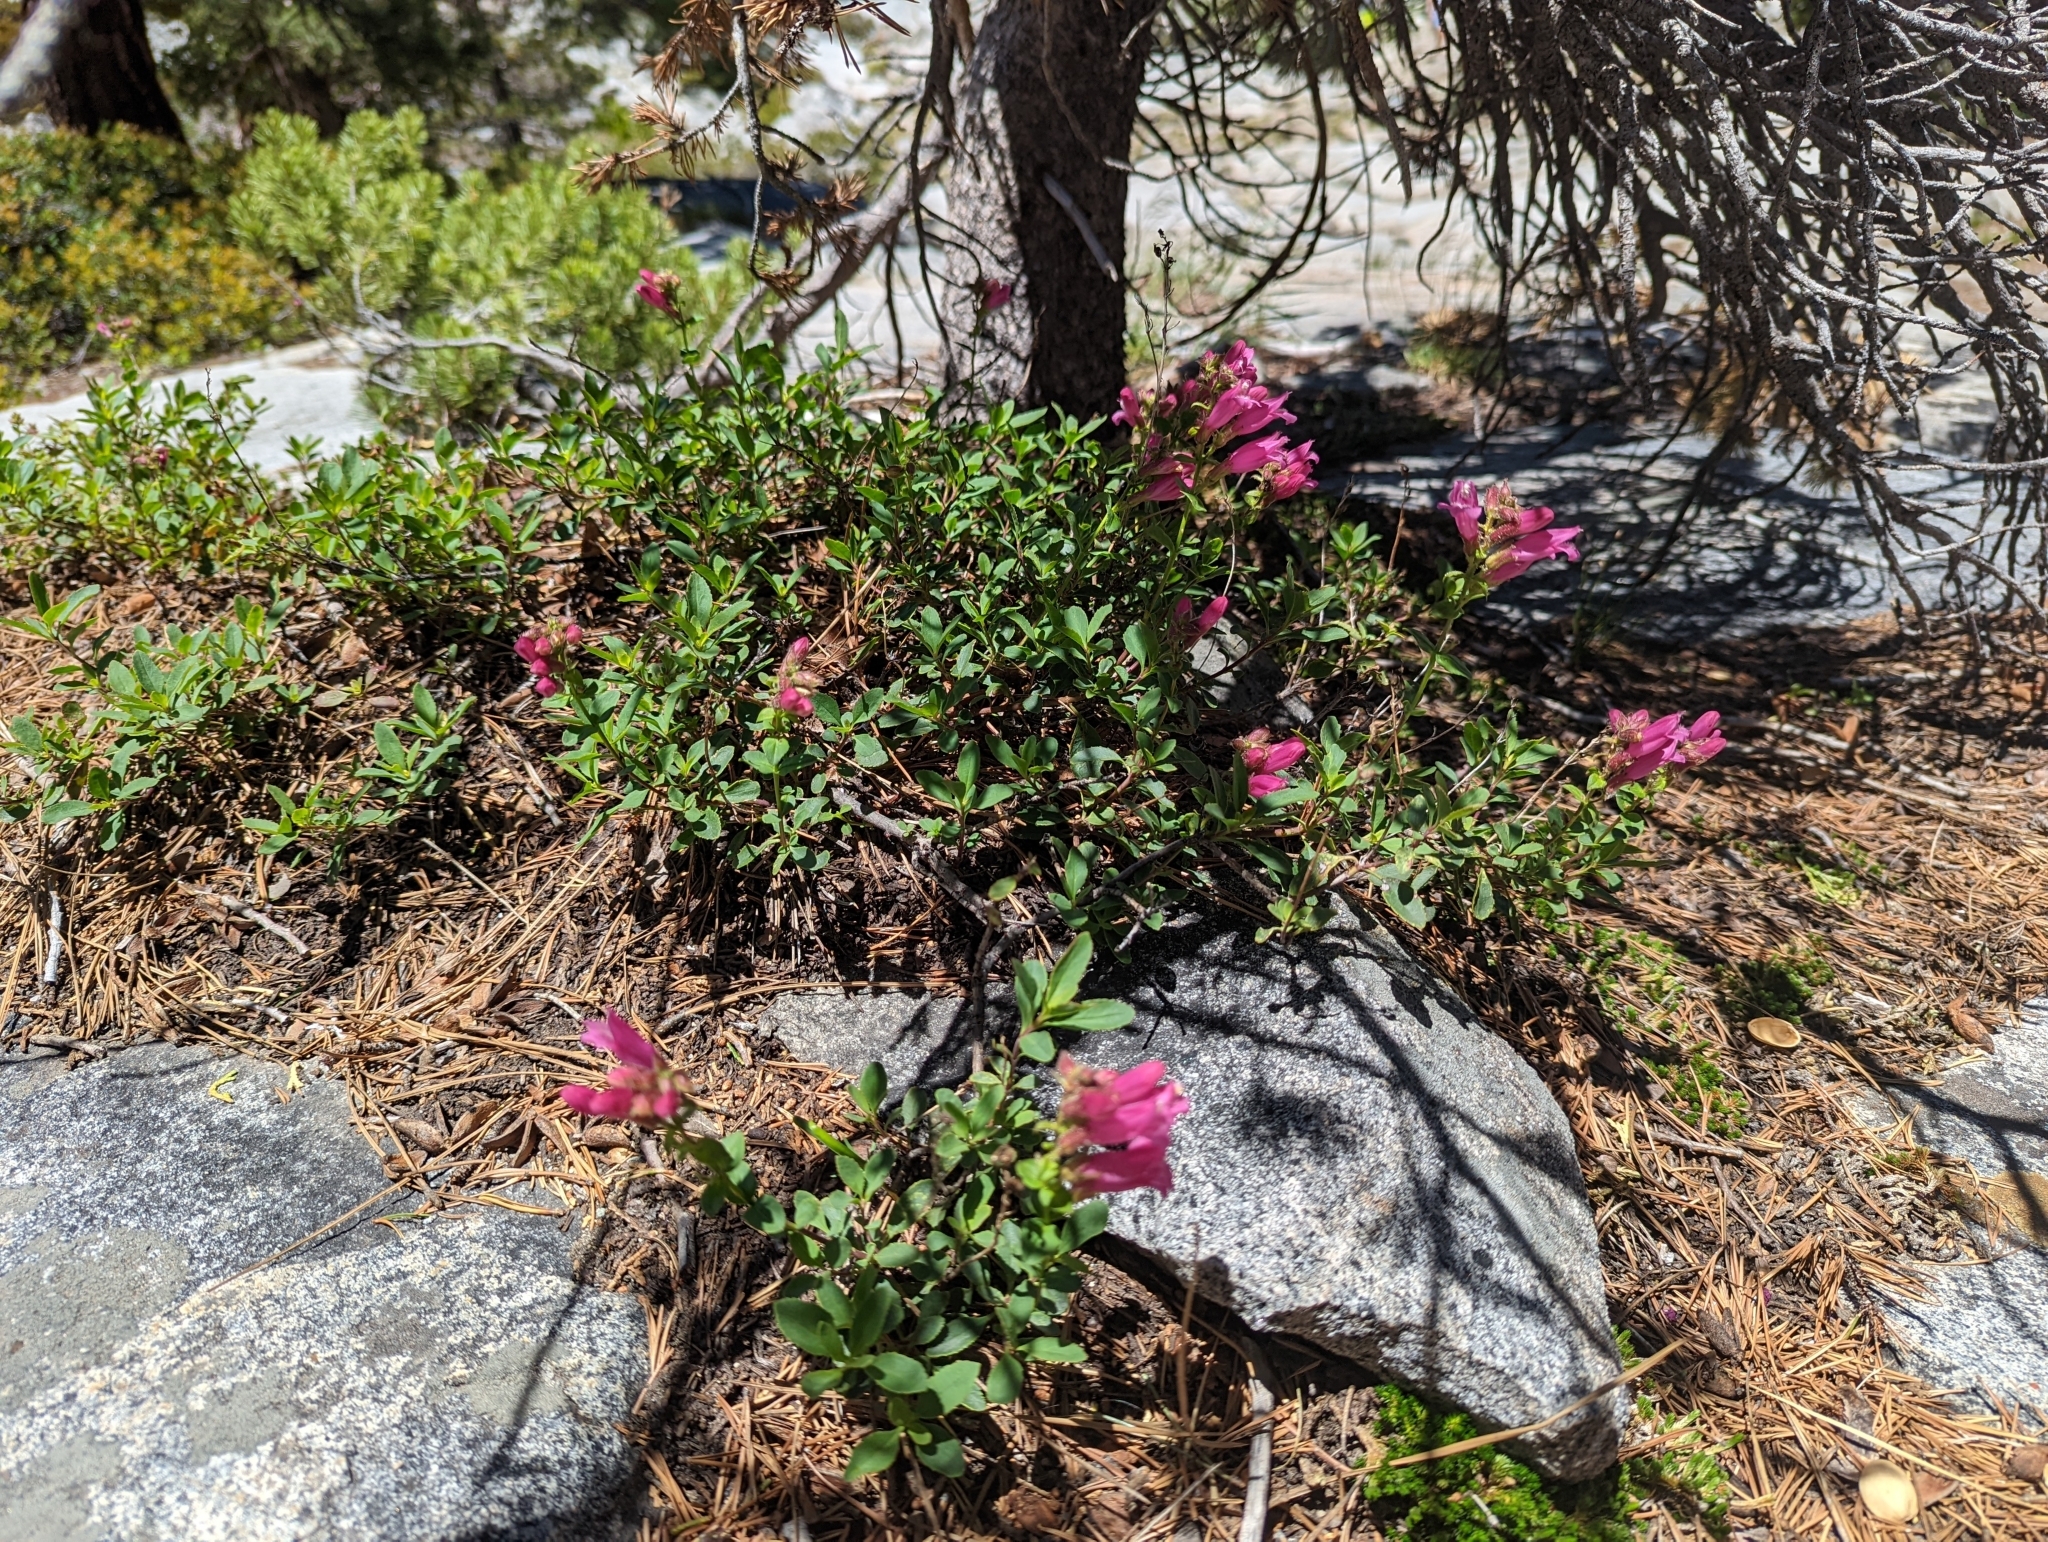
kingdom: Plantae
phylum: Tracheophyta
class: Magnoliopsida
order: Lamiales
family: Plantaginaceae
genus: Penstemon
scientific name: Penstemon newberryi
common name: Mountain-pride
